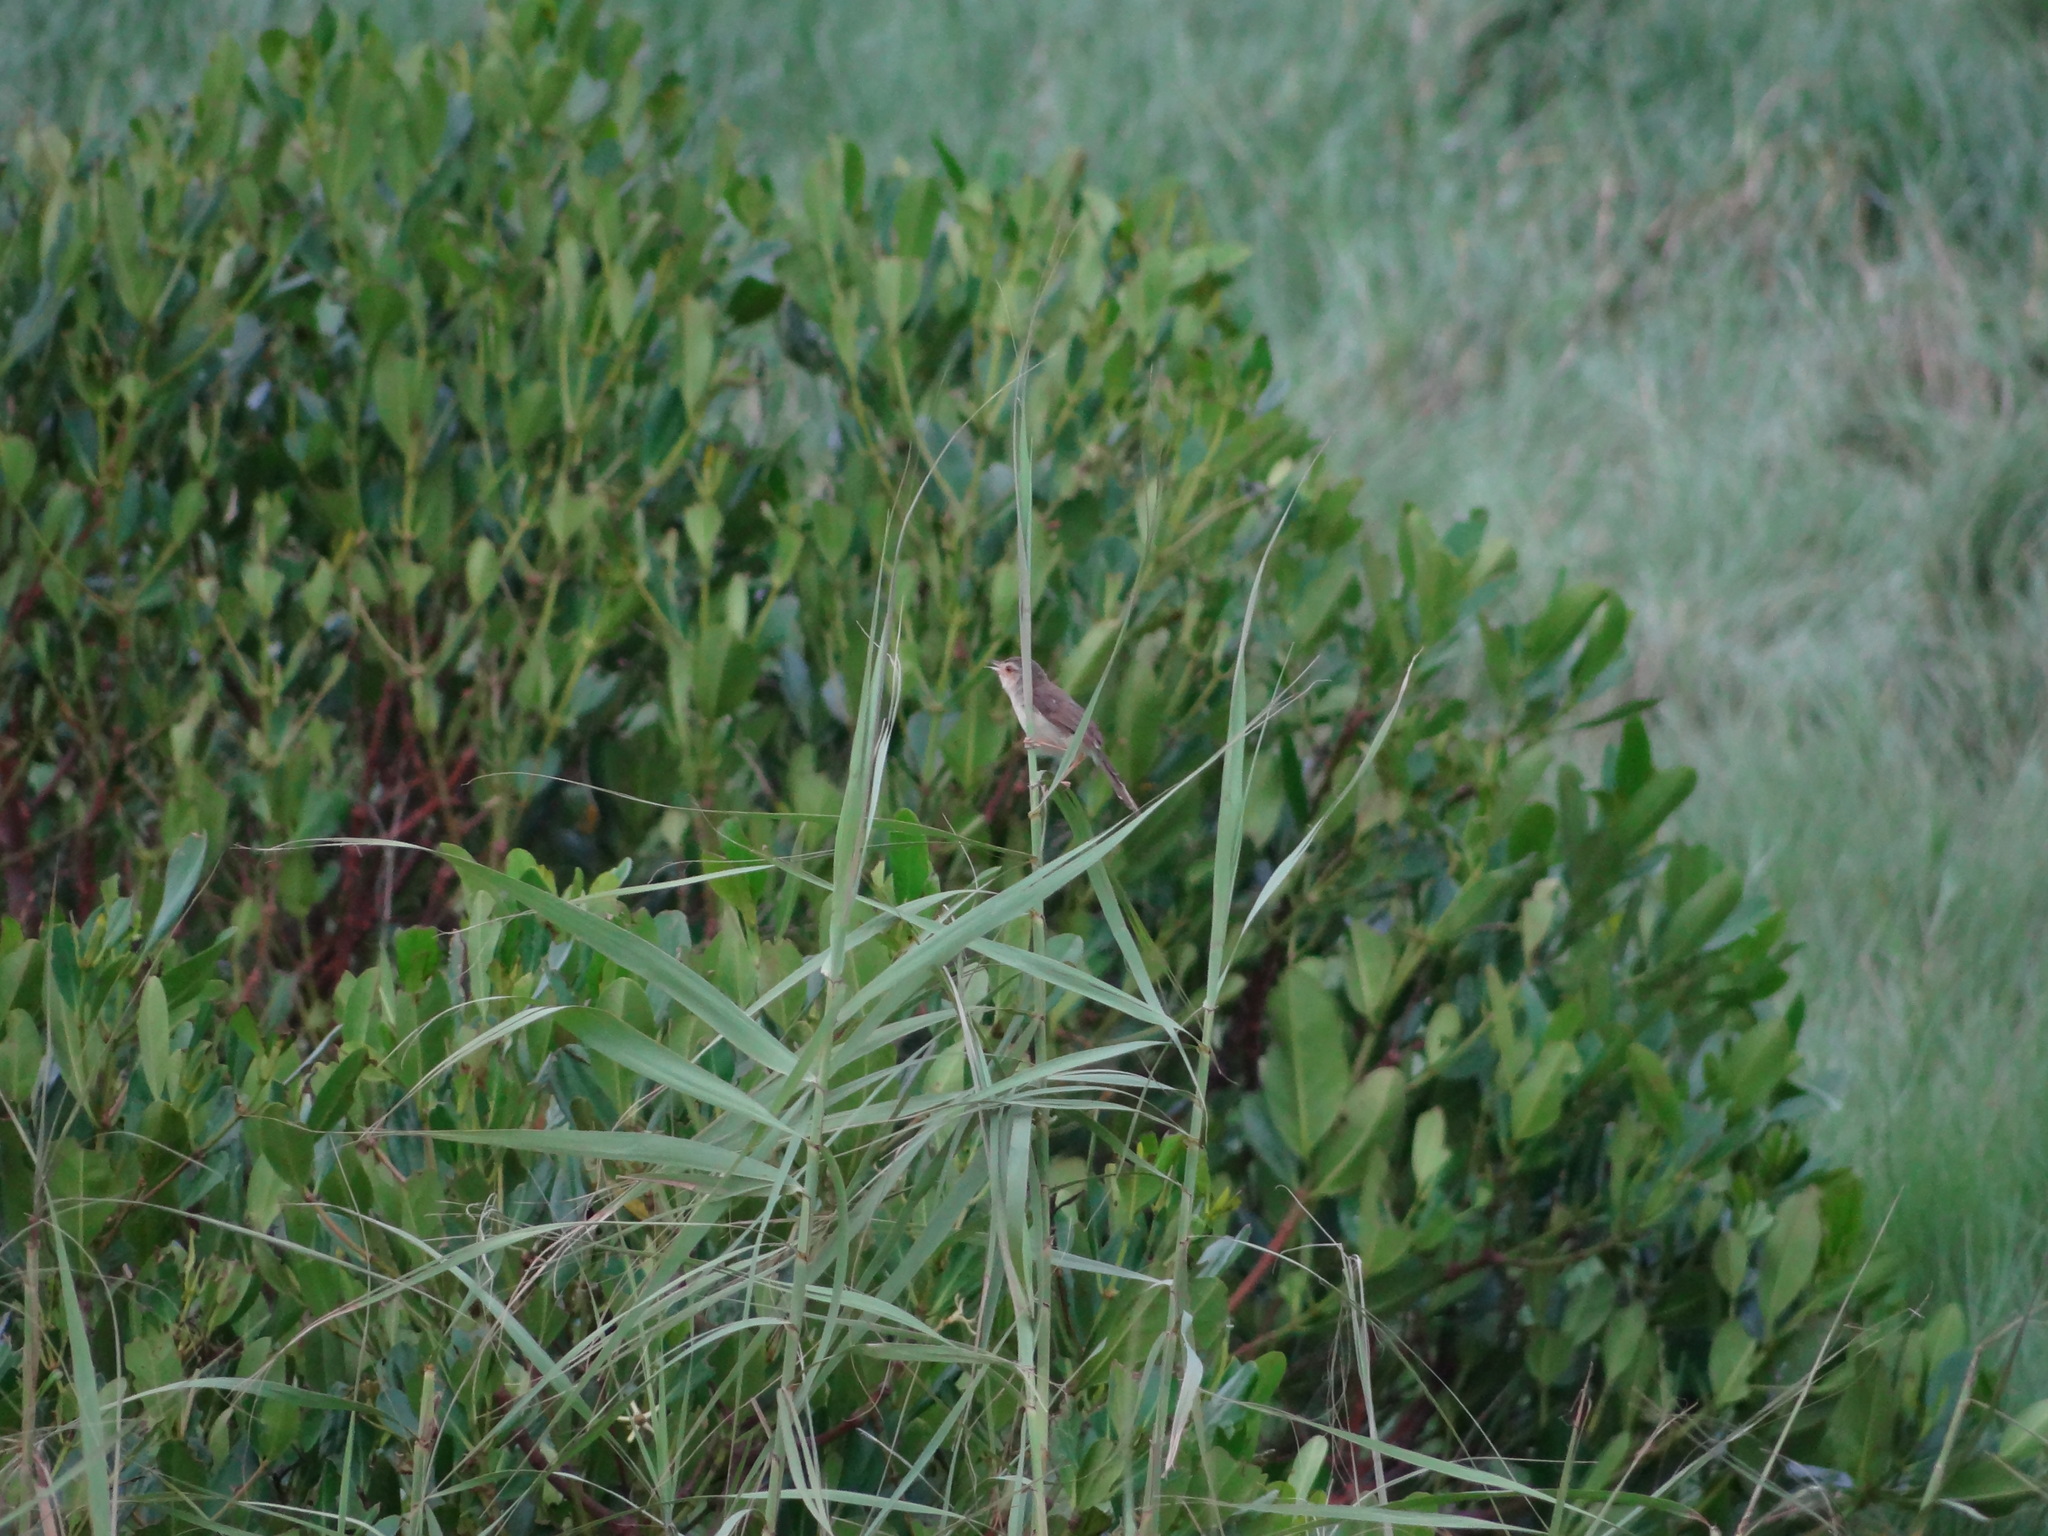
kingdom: Animalia
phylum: Chordata
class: Aves
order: Passeriformes
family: Cisticolidae
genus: Prinia
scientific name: Prinia inornata
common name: Plain prinia
